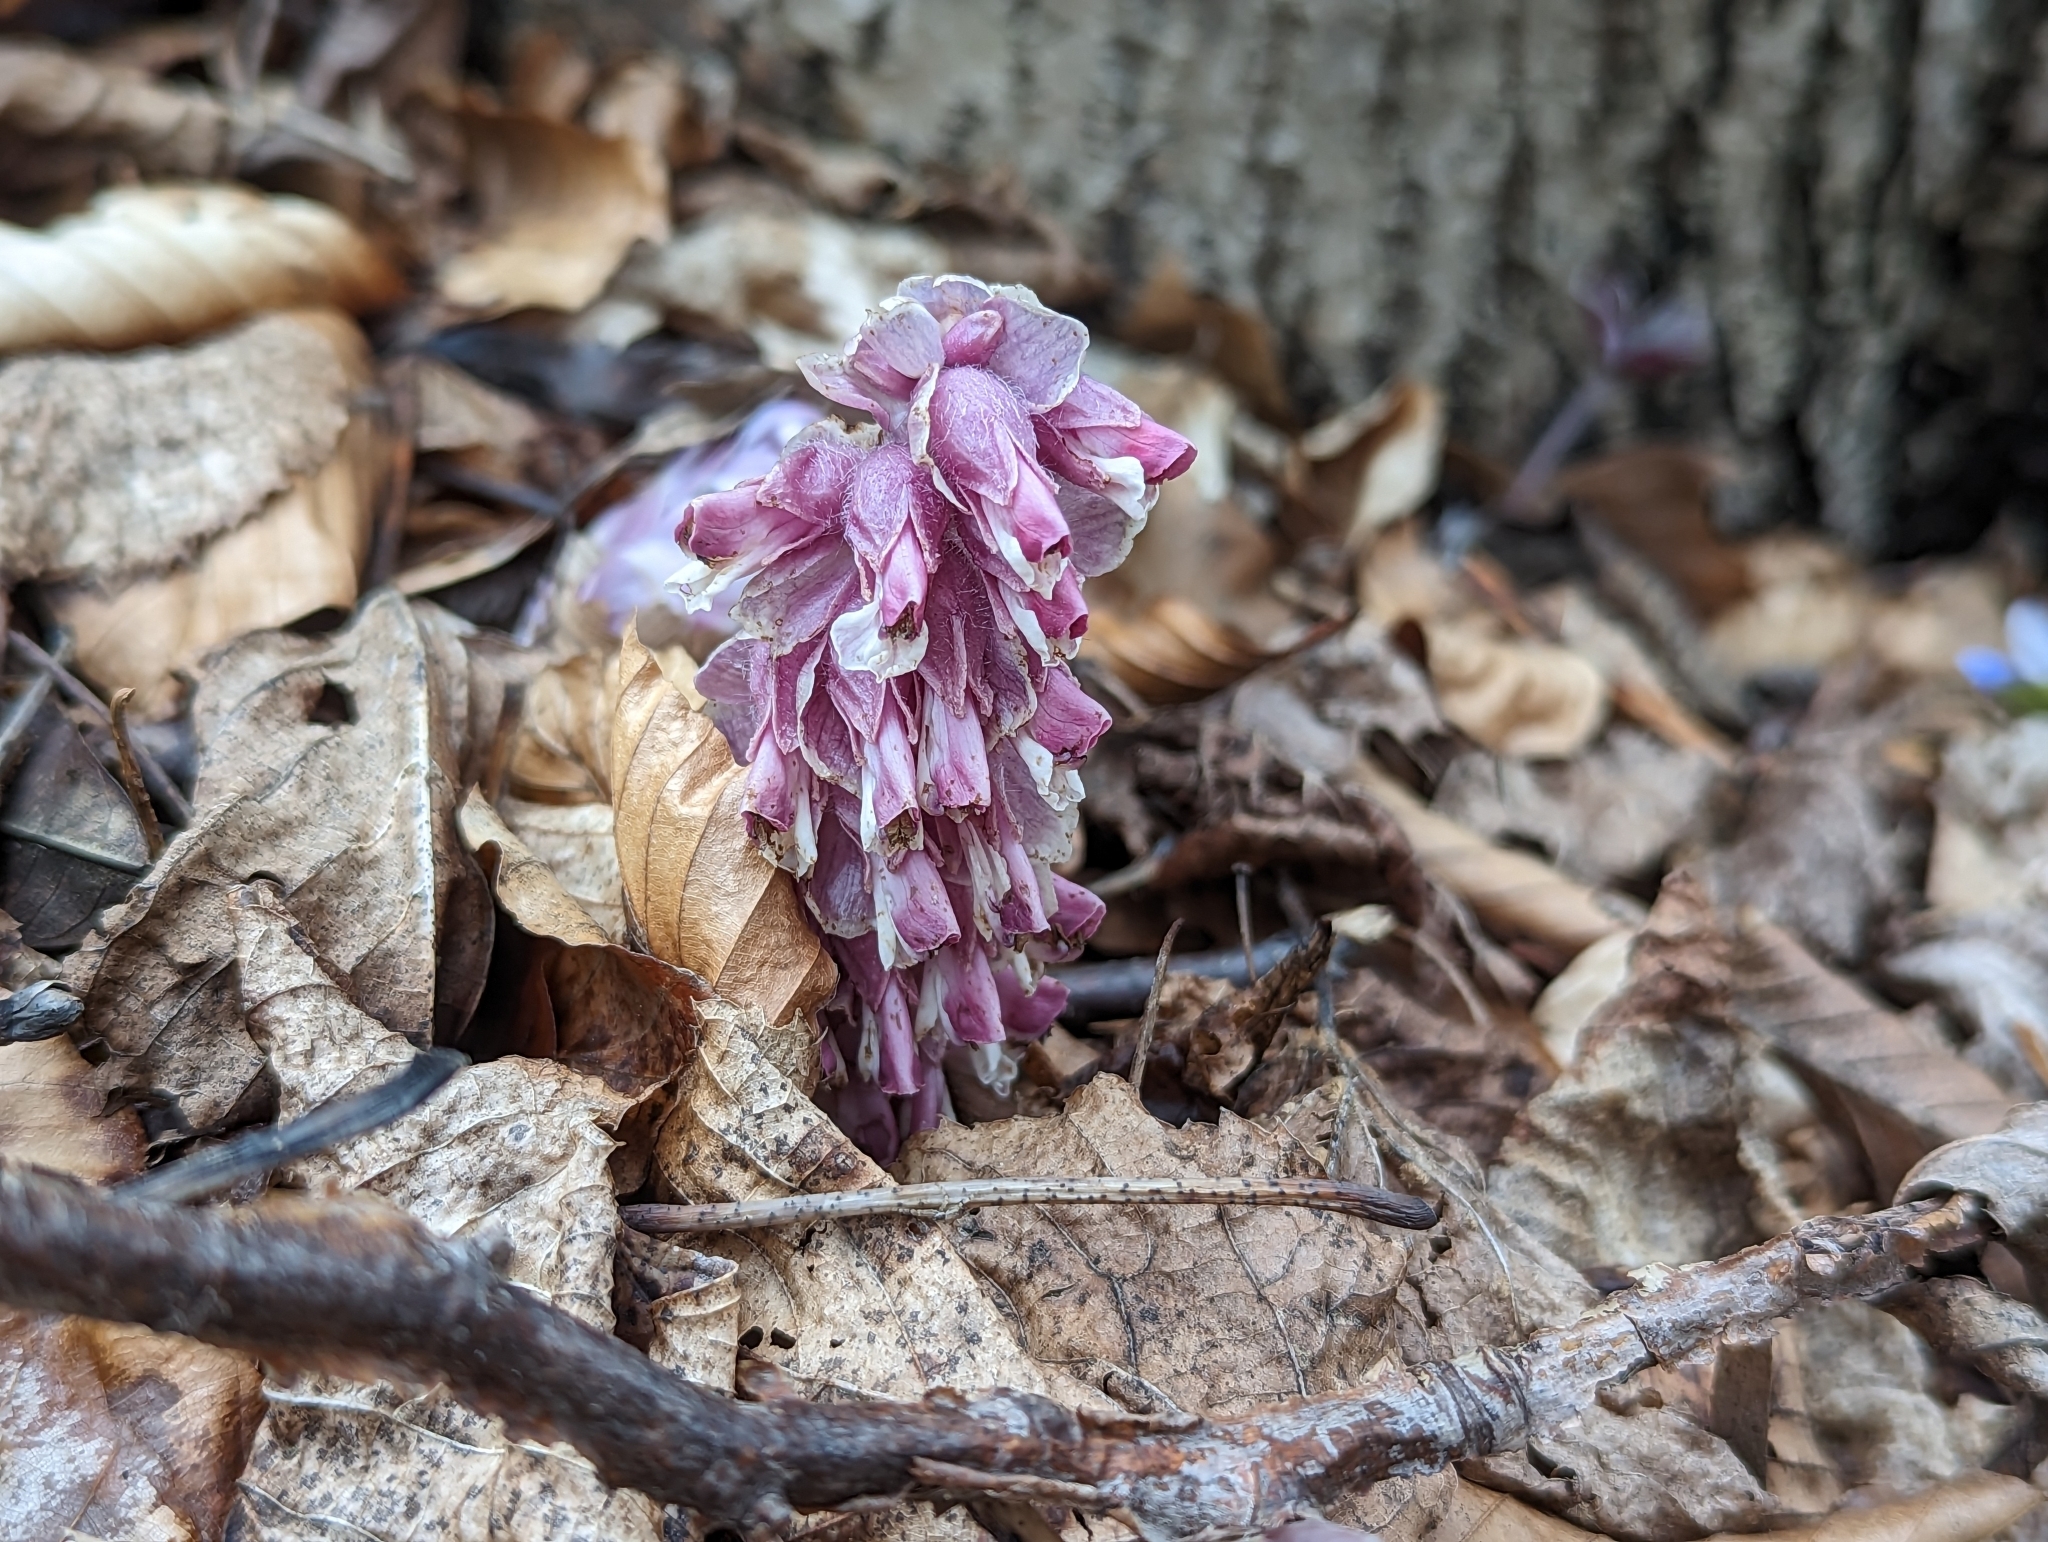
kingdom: Plantae
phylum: Tracheophyta
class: Magnoliopsida
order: Lamiales
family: Orobanchaceae
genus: Lathraea
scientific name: Lathraea squamaria
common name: Toothwort
